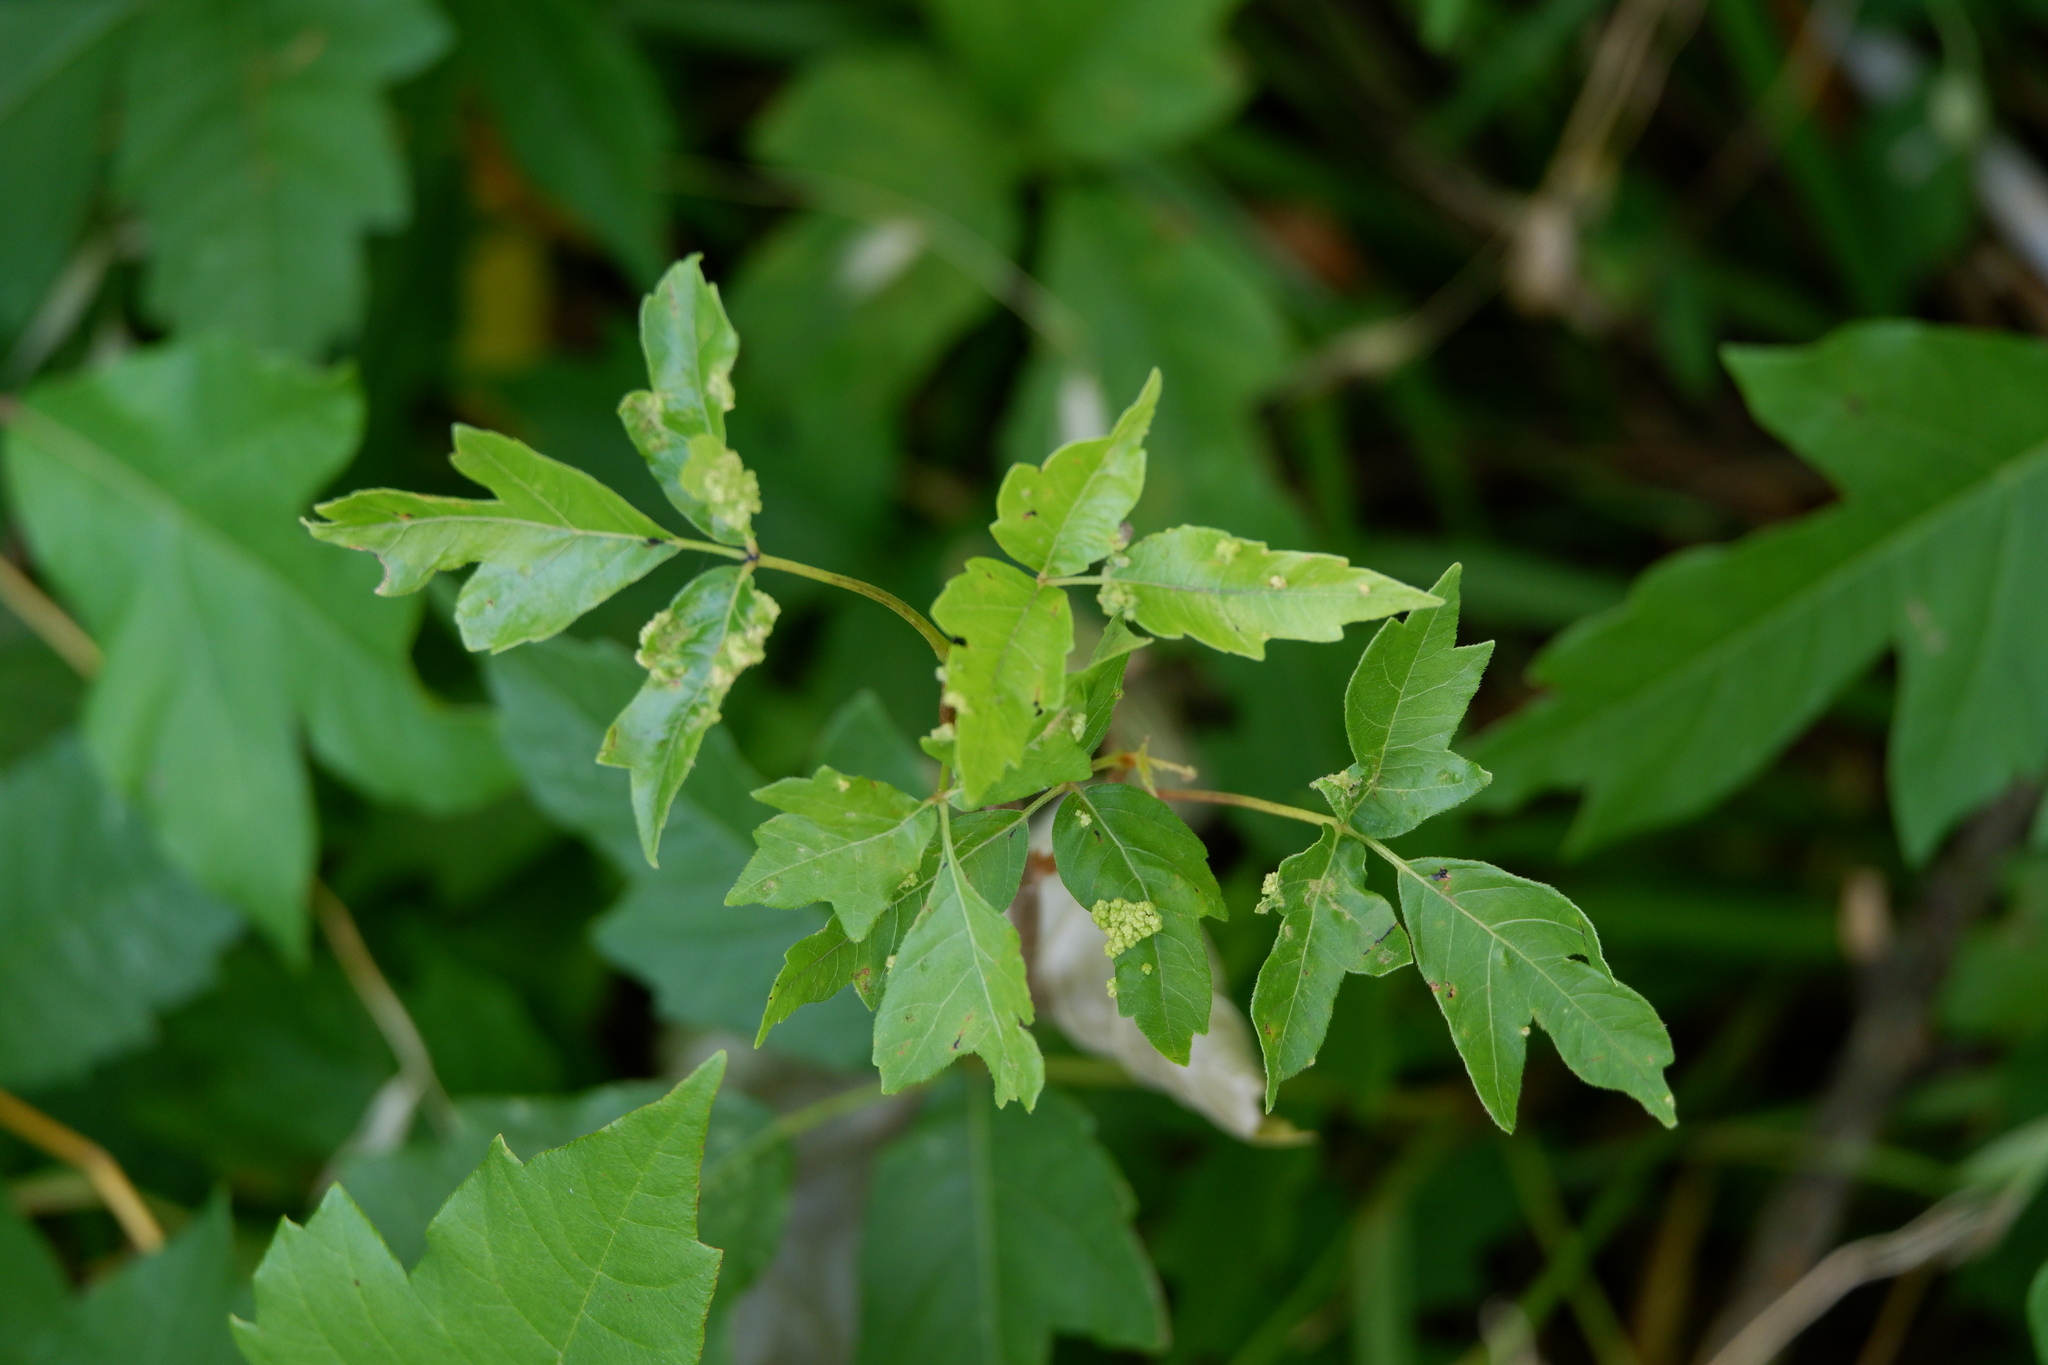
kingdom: Animalia
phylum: Arthropoda
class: Arachnida
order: Trombidiformes
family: Eriophyidae
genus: Aculops
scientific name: Aculops
